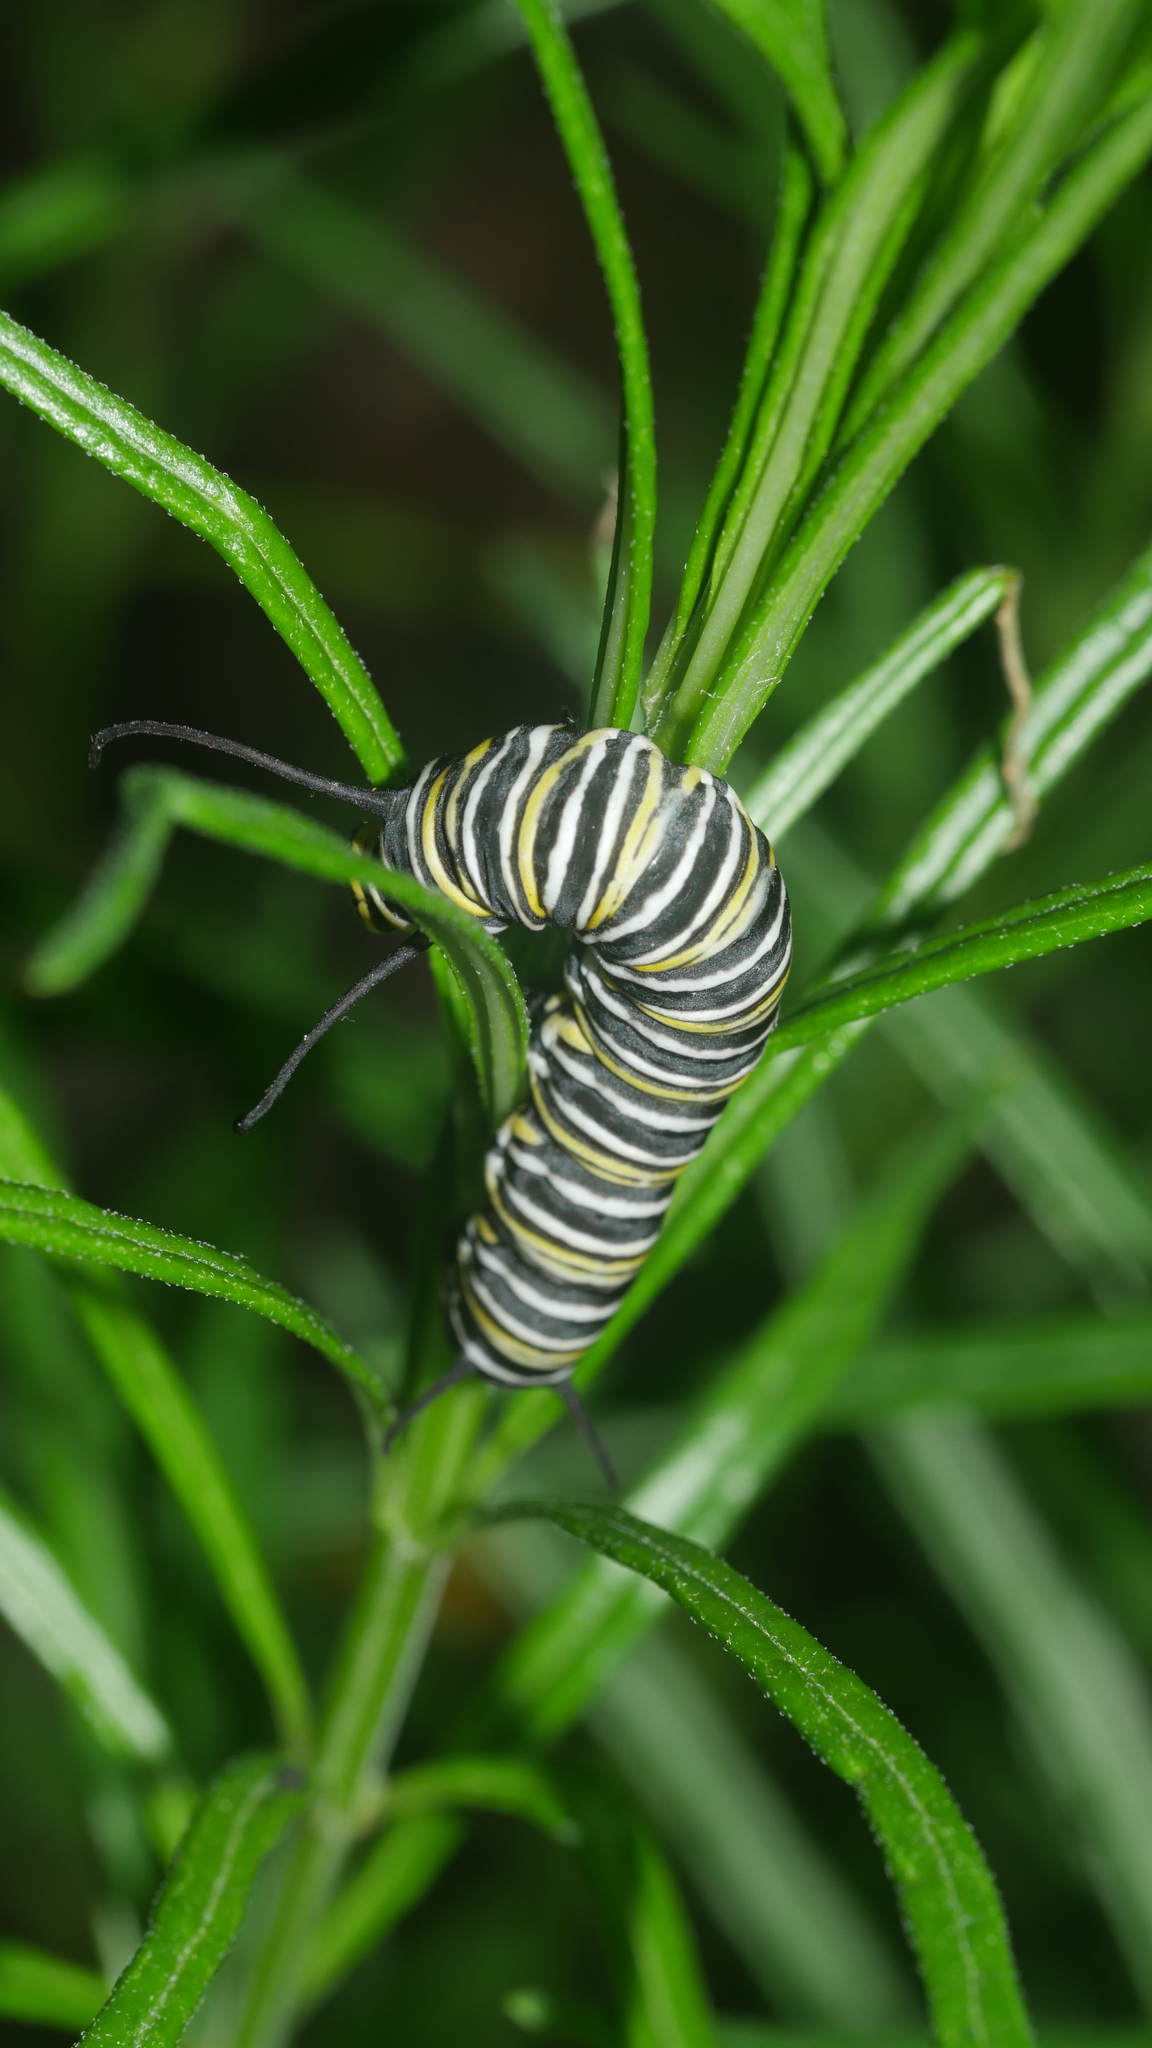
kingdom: Animalia
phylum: Arthropoda
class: Insecta
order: Lepidoptera
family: Nymphalidae
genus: Danaus
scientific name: Danaus plexippus
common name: Monarch
